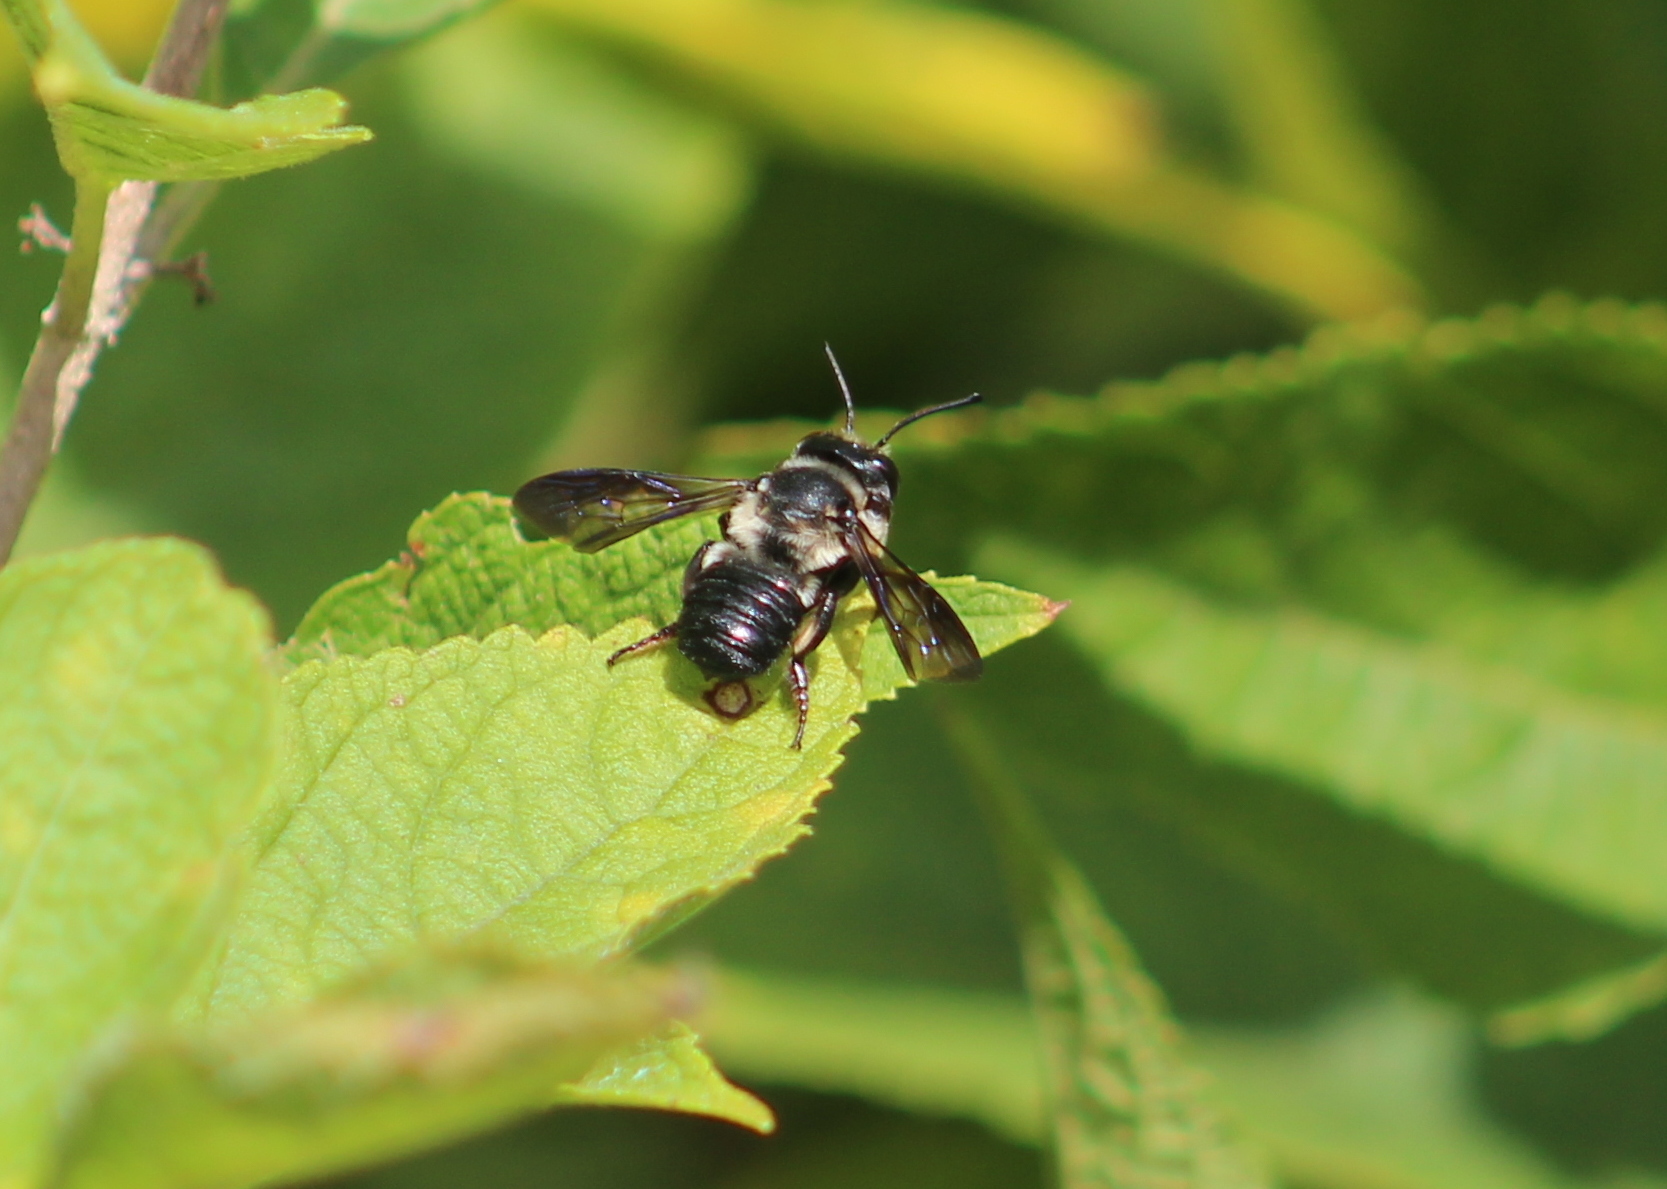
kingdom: Animalia
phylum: Arthropoda
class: Insecta
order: Hymenoptera
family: Megachilidae
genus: Megachile
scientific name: Megachile xylocopoides
